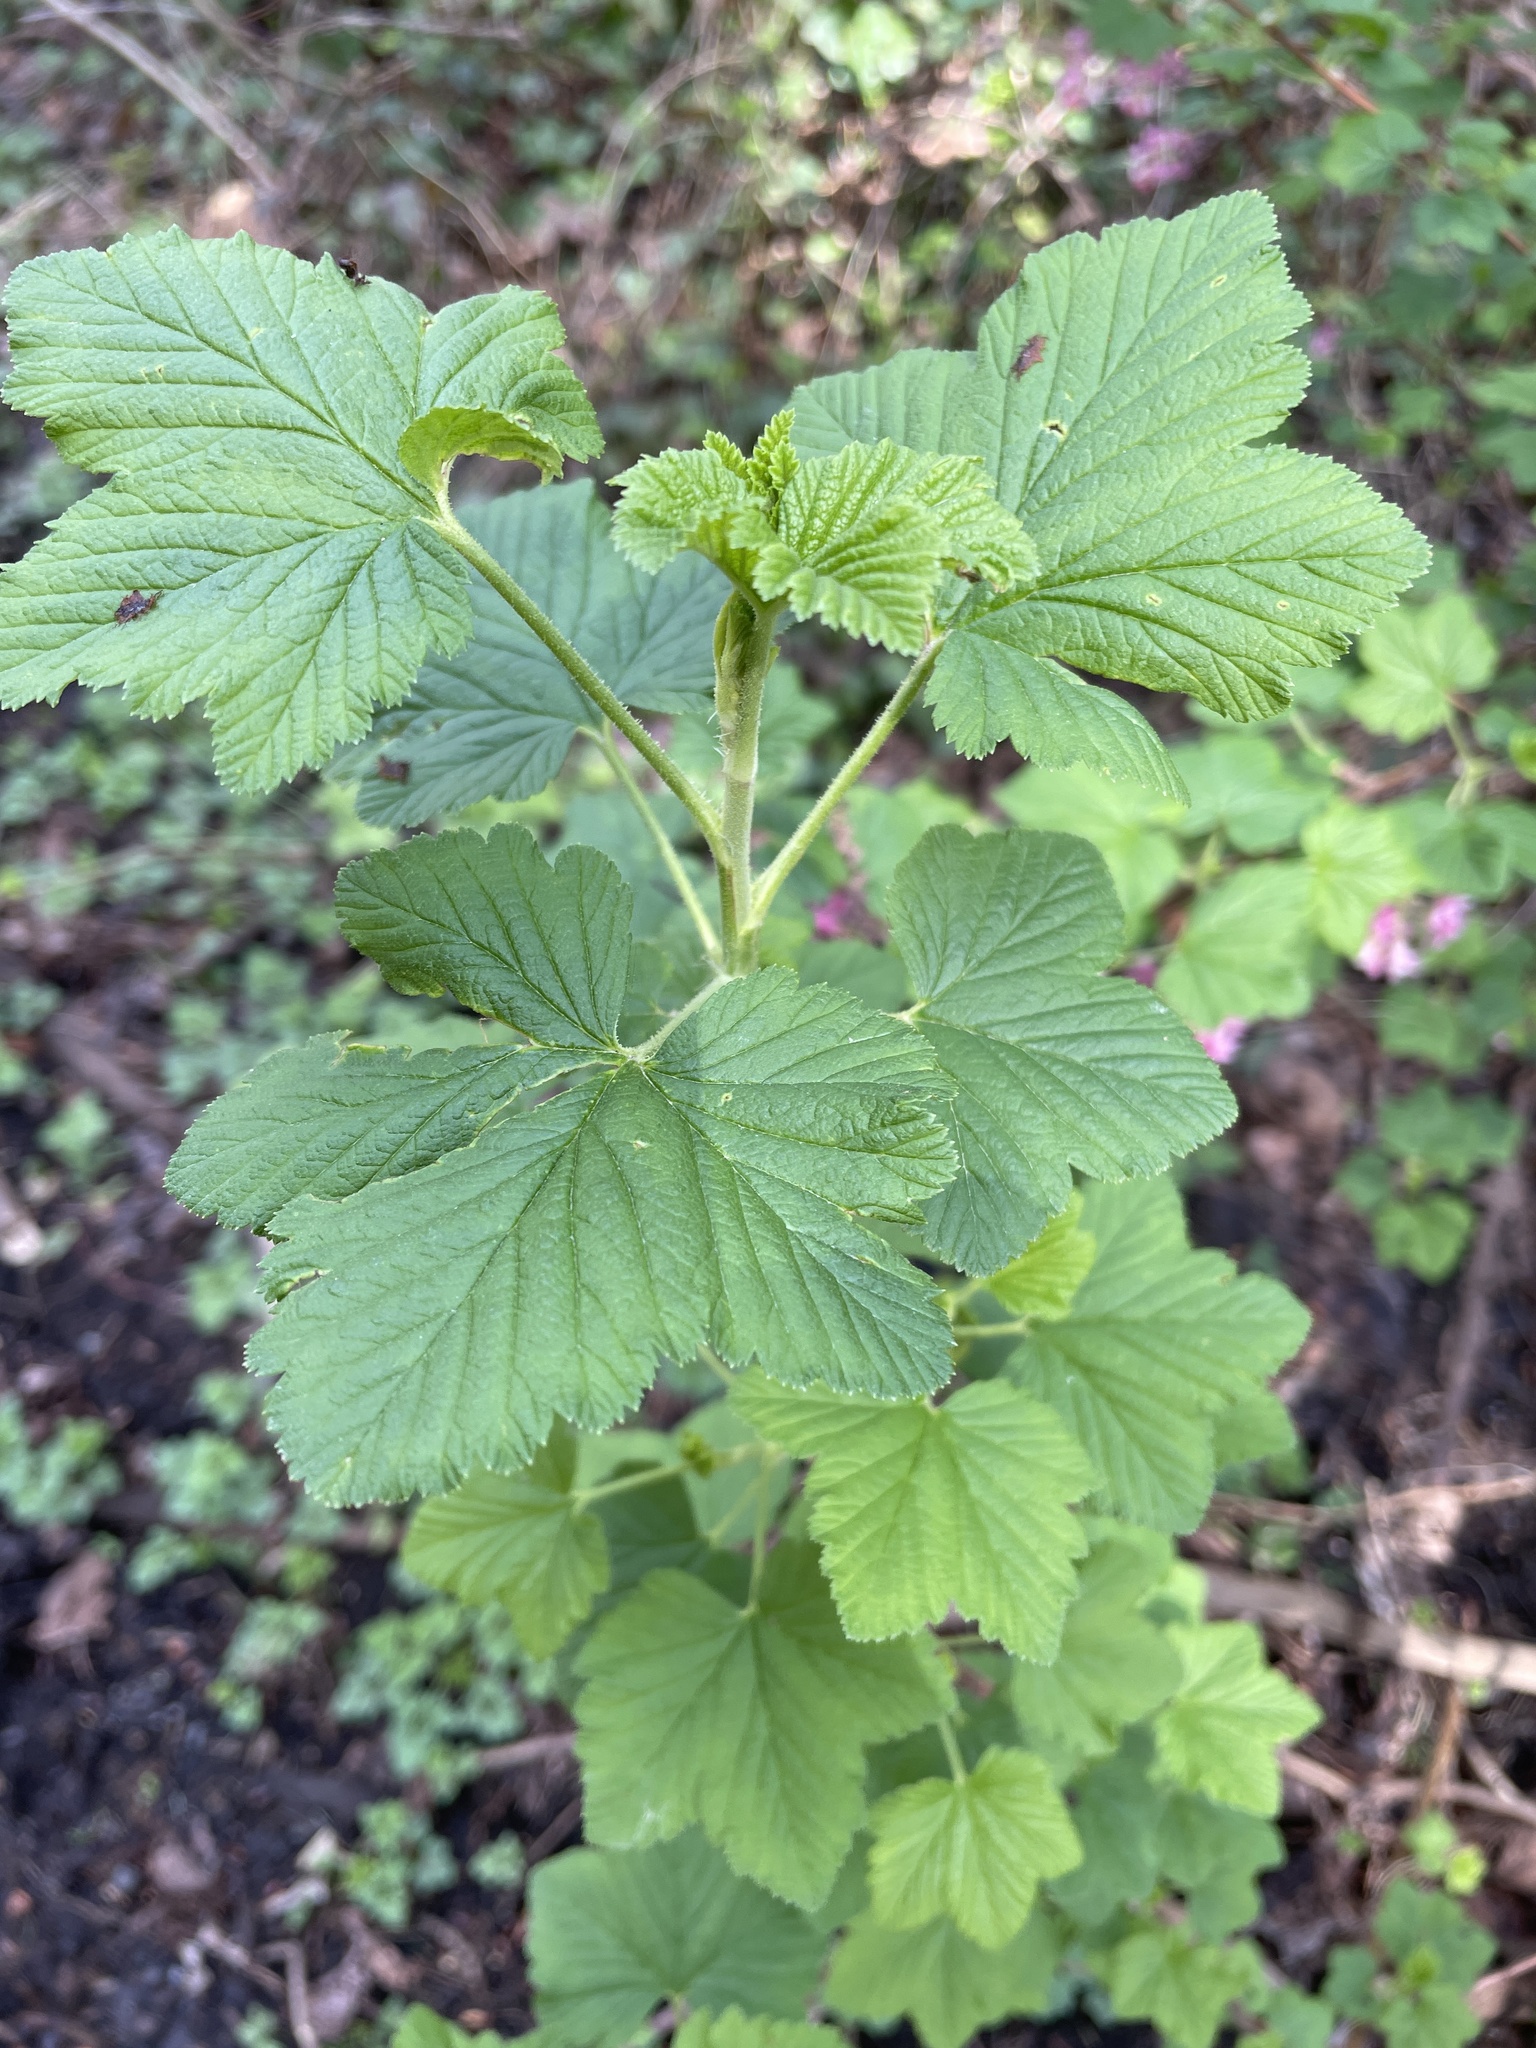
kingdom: Plantae
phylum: Tracheophyta
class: Magnoliopsida
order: Saxifragales
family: Grossulariaceae
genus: Ribes
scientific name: Ribes sanguineum
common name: Flowering currant
